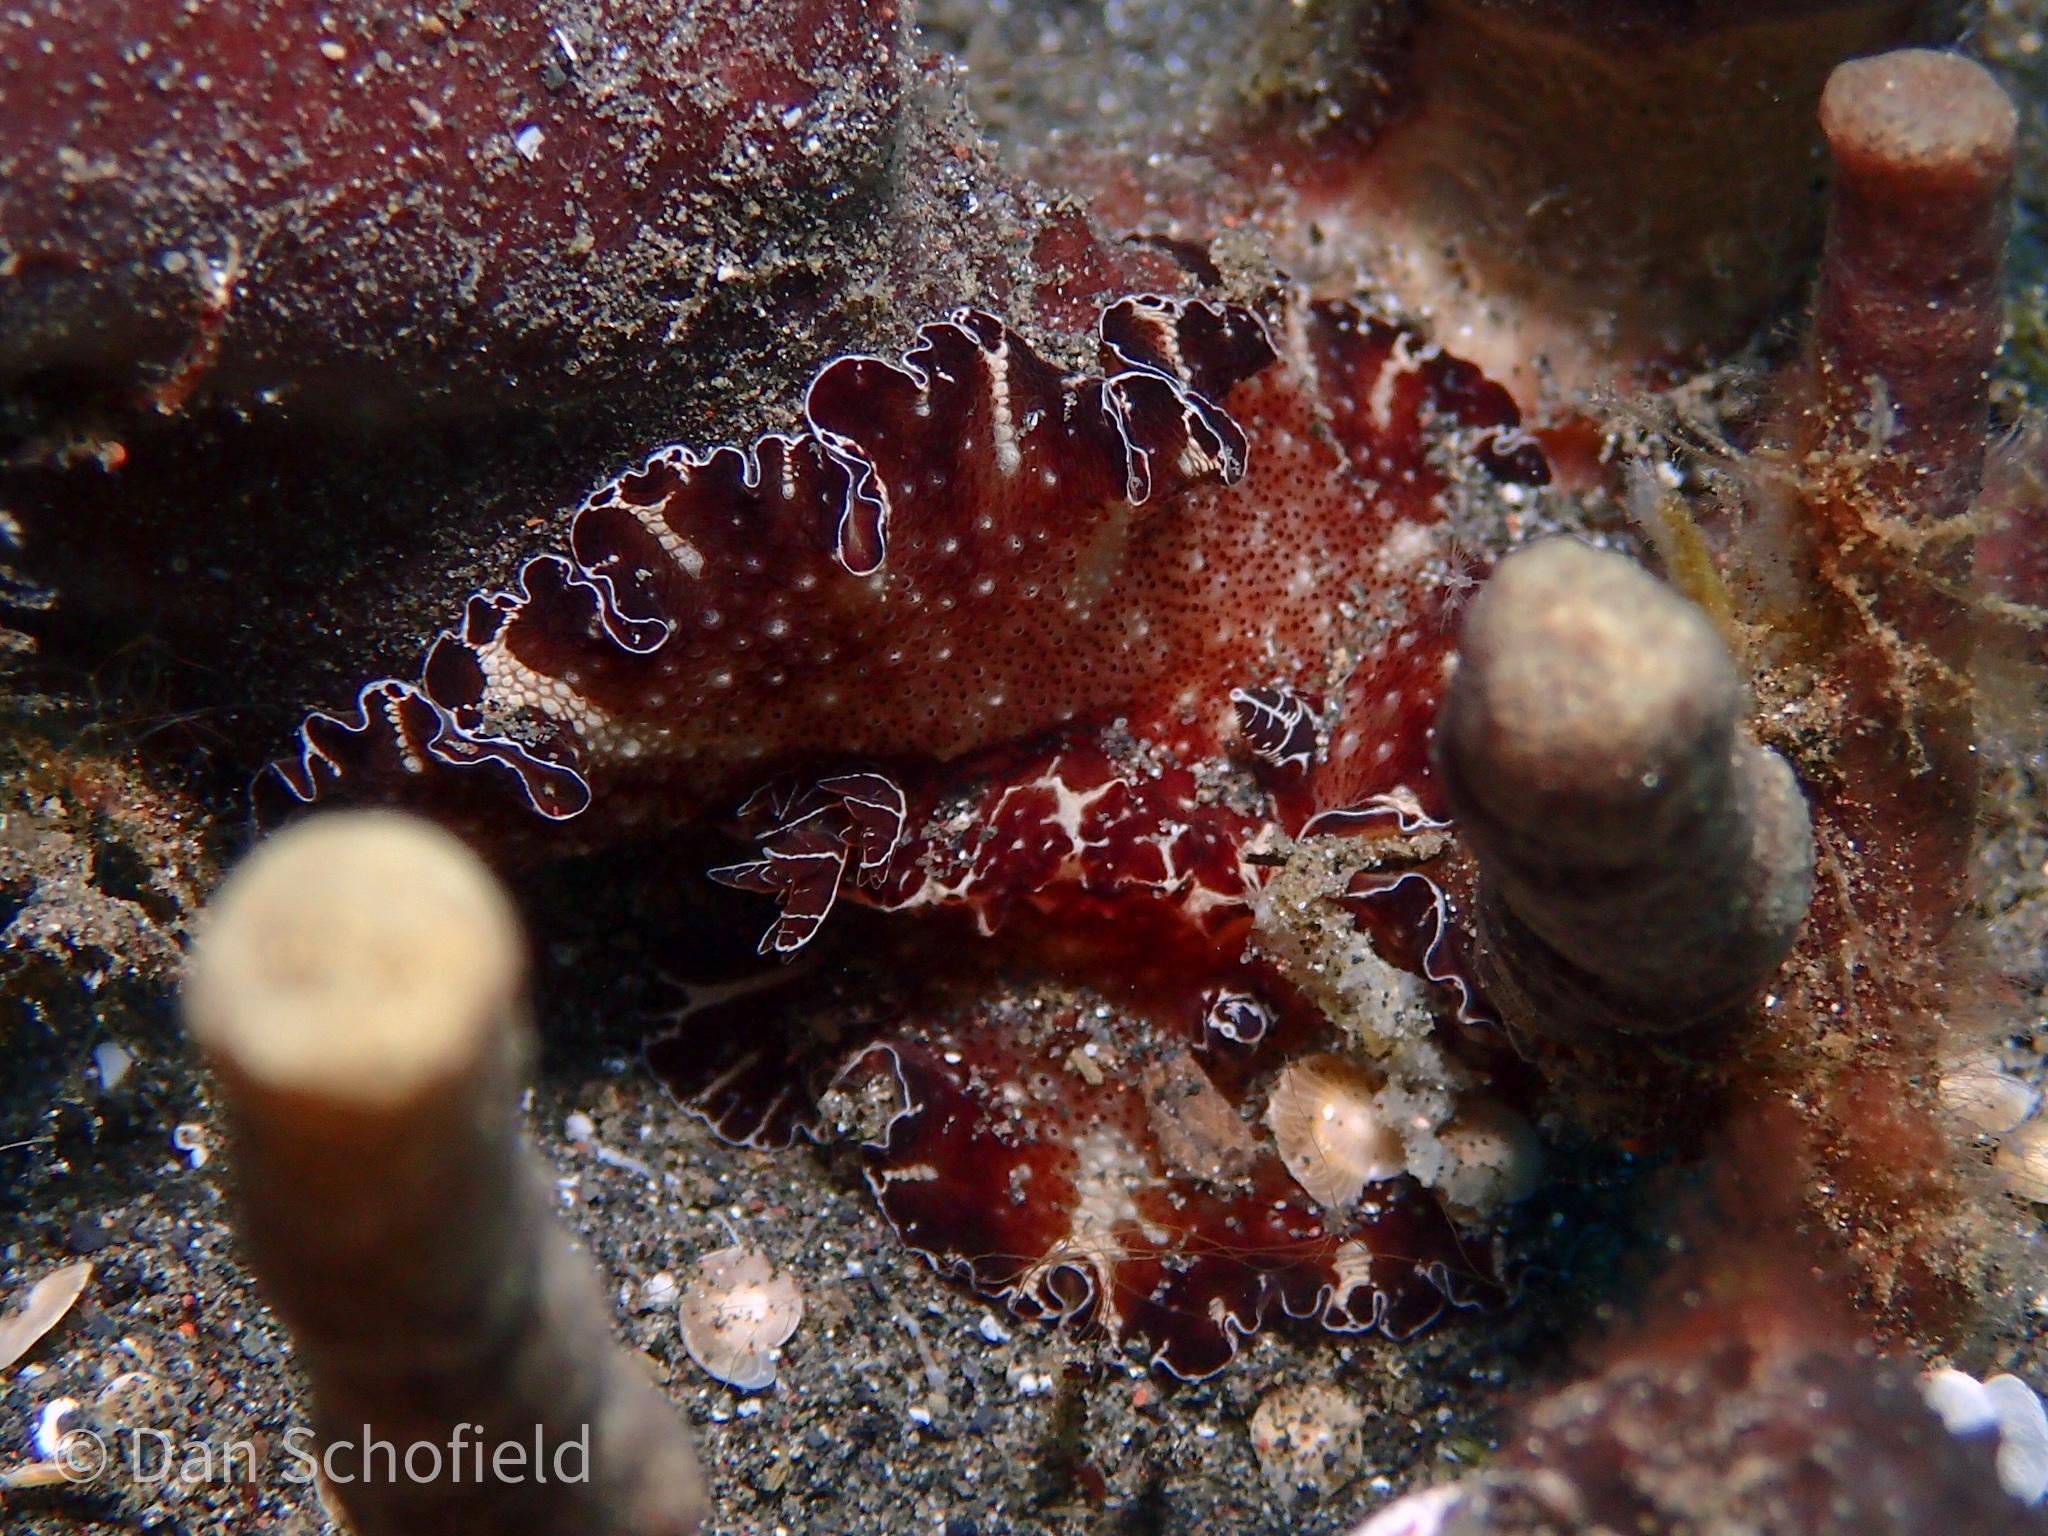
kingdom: Animalia
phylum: Mollusca
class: Gastropoda
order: Nudibranchia
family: Discodorididae
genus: Discodoris
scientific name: Discodoris boholiensis
